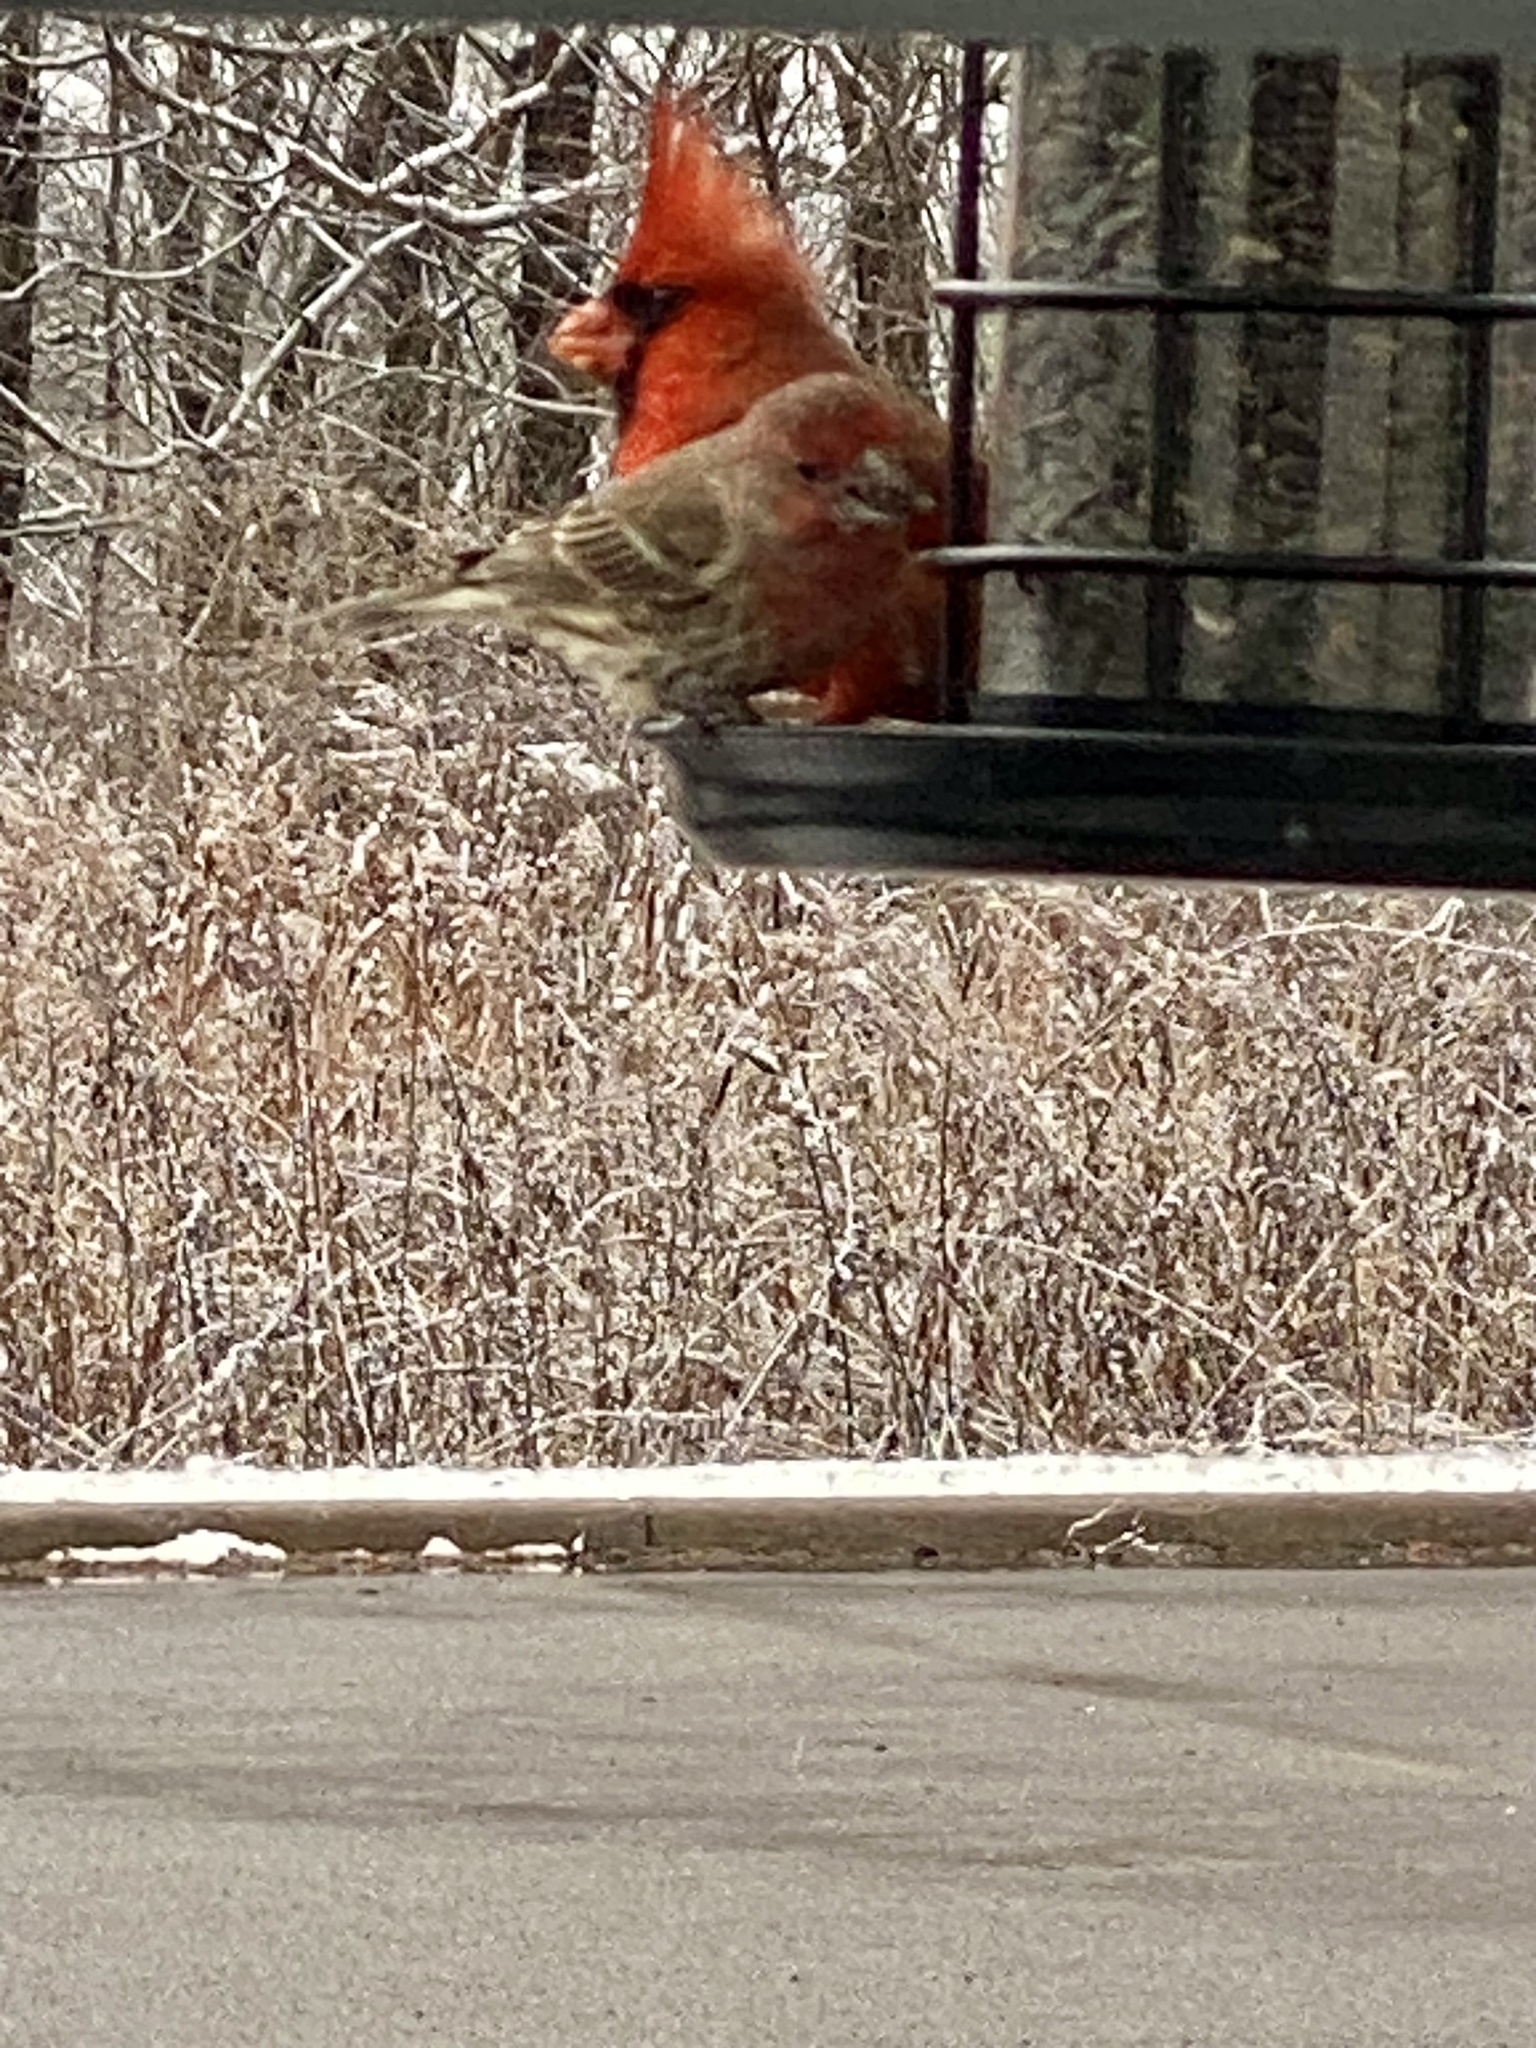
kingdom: Animalia
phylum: Chordata
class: Aves
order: Passeriformes
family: Cardinalidae
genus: Cardinalis
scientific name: Cardinalis cardinalis
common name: Northern cardinal
